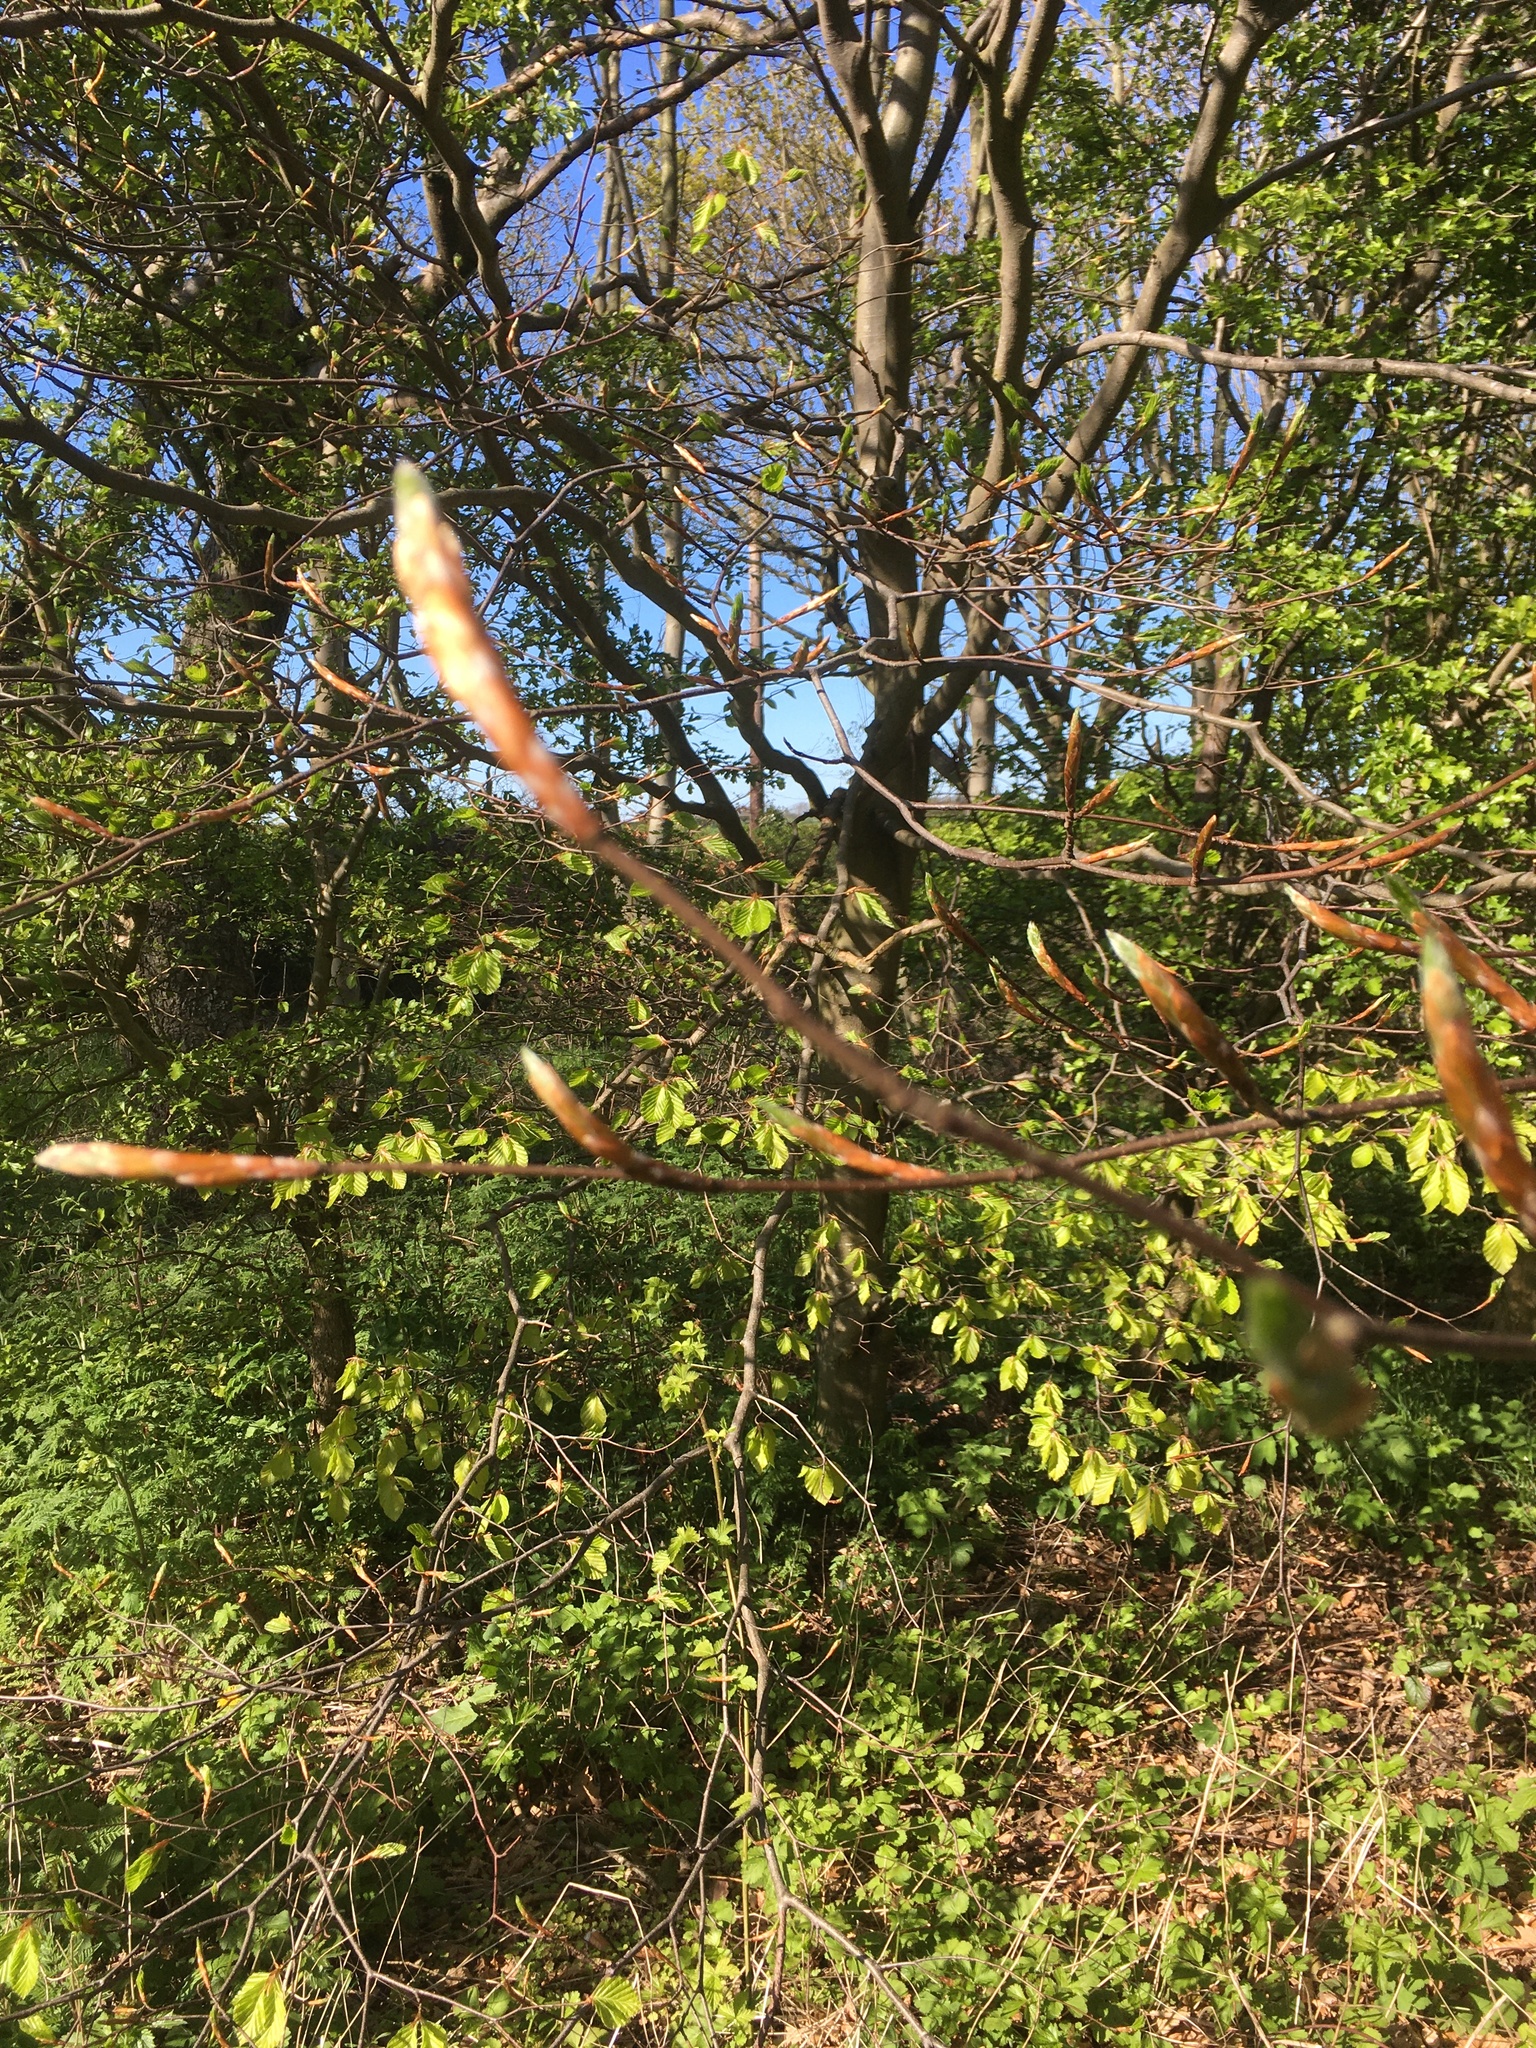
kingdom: Plantae
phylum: Tracheophyta
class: Magnoliopsida
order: Fagales
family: Fagaceae
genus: Fagus
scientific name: Fagus sylvatica
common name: Beech
